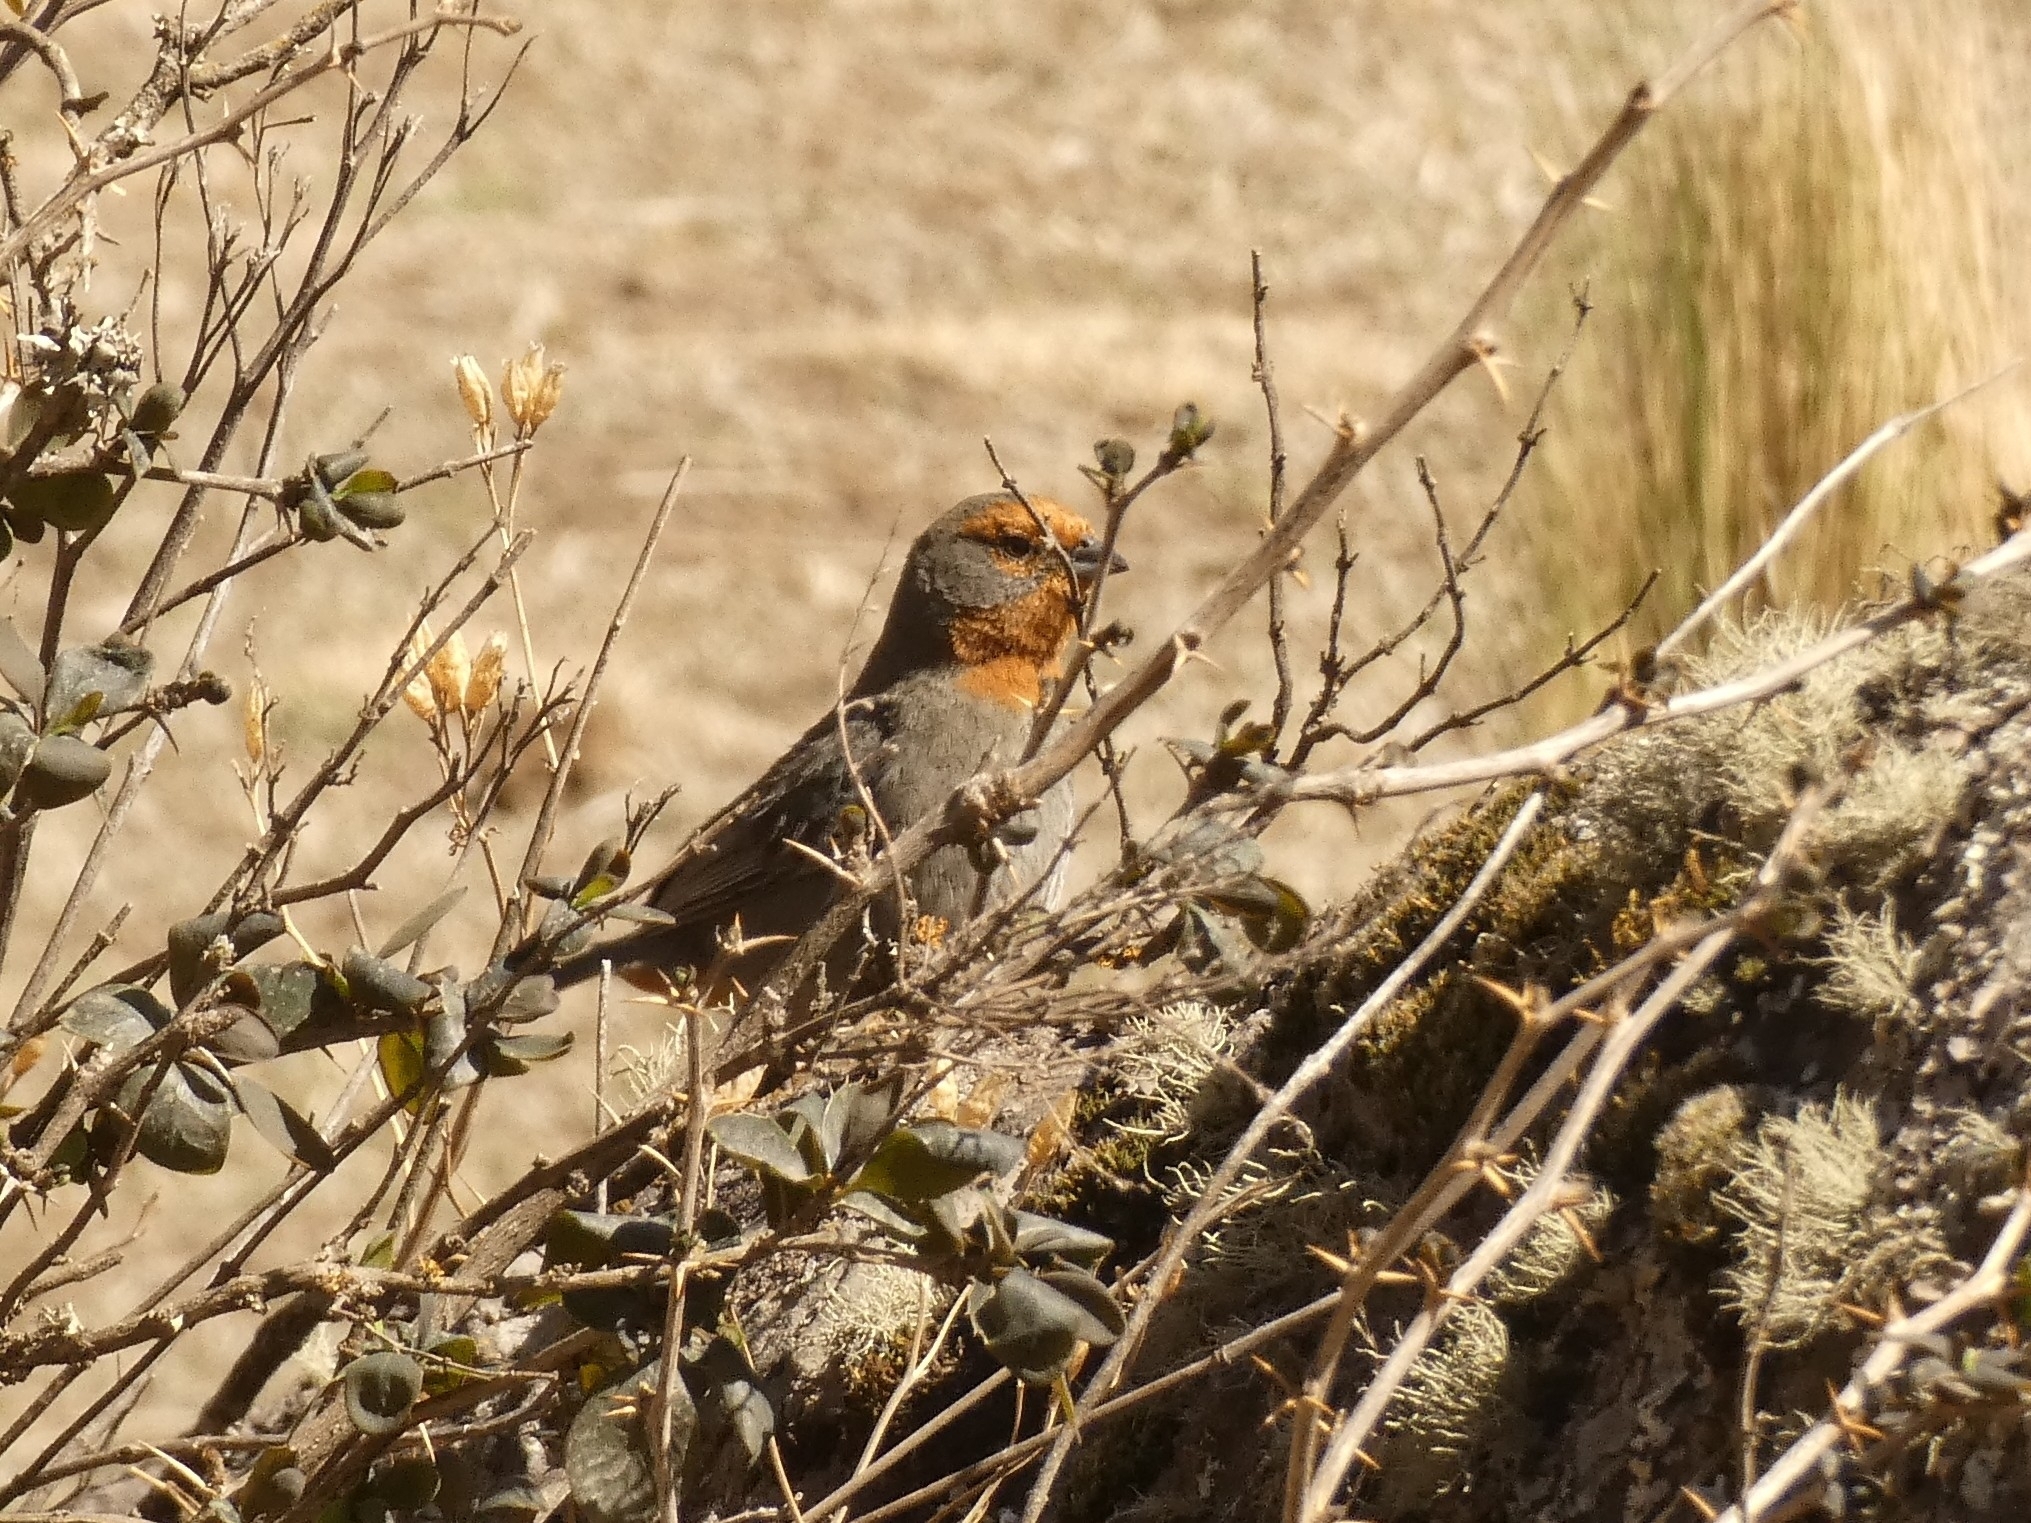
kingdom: Animalia
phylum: Chordata
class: Aves
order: Passeriformes
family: Thraupidae
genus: Poospiza
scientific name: Poospiza baeri
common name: Tucuman mountain-finch
